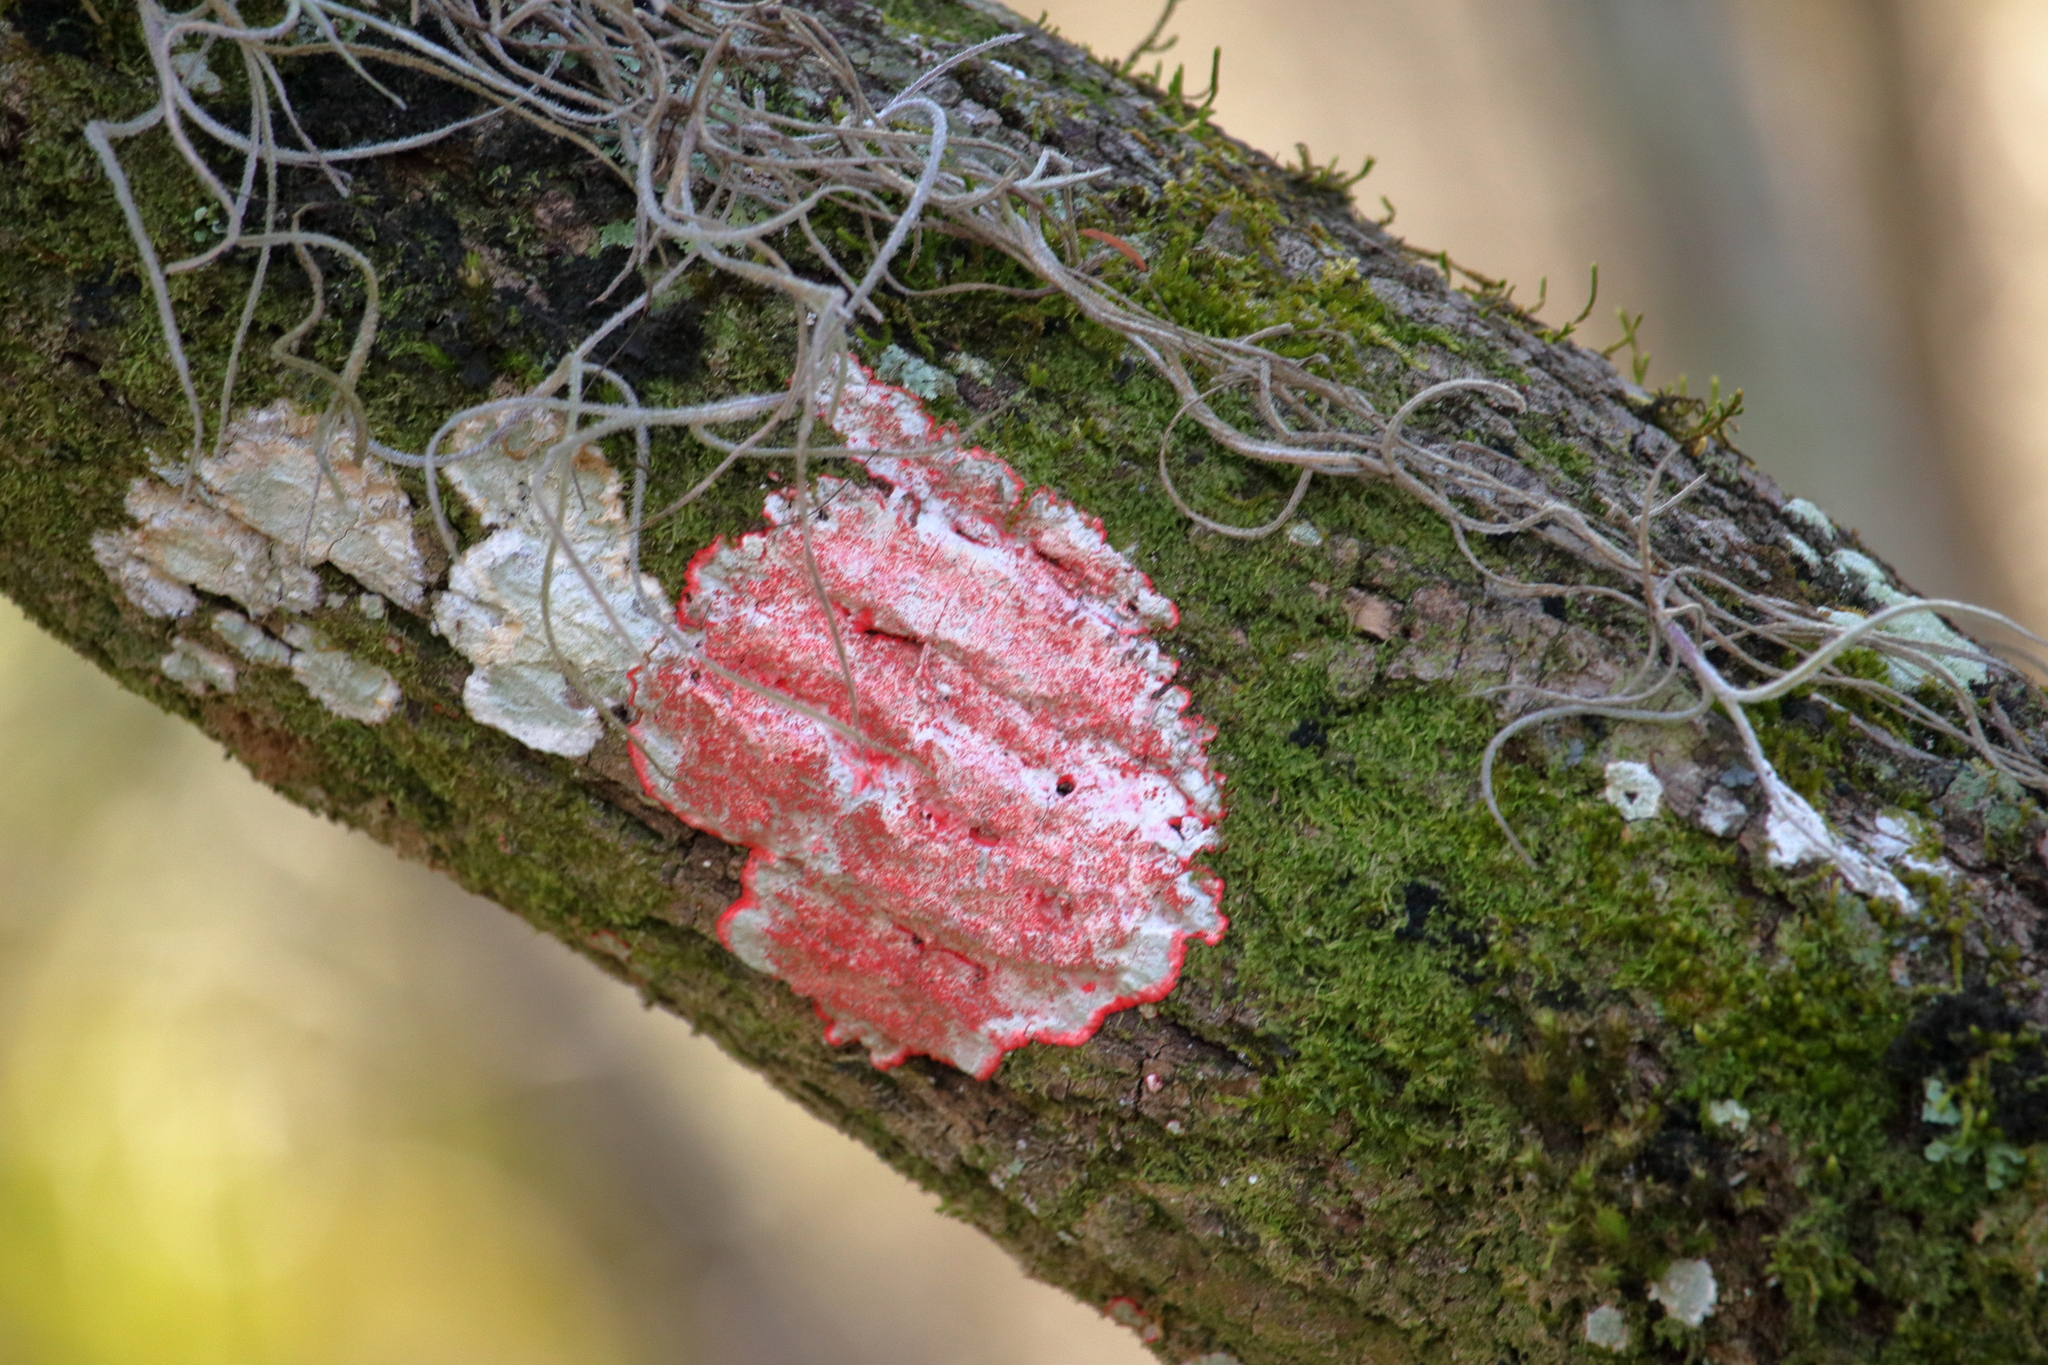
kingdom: Fungi
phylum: Ascomycota
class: Arthoniomycetes
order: Arthoniales
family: Arthoniaceae
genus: Herpothallon
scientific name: Herpothallon rubrocinctum
